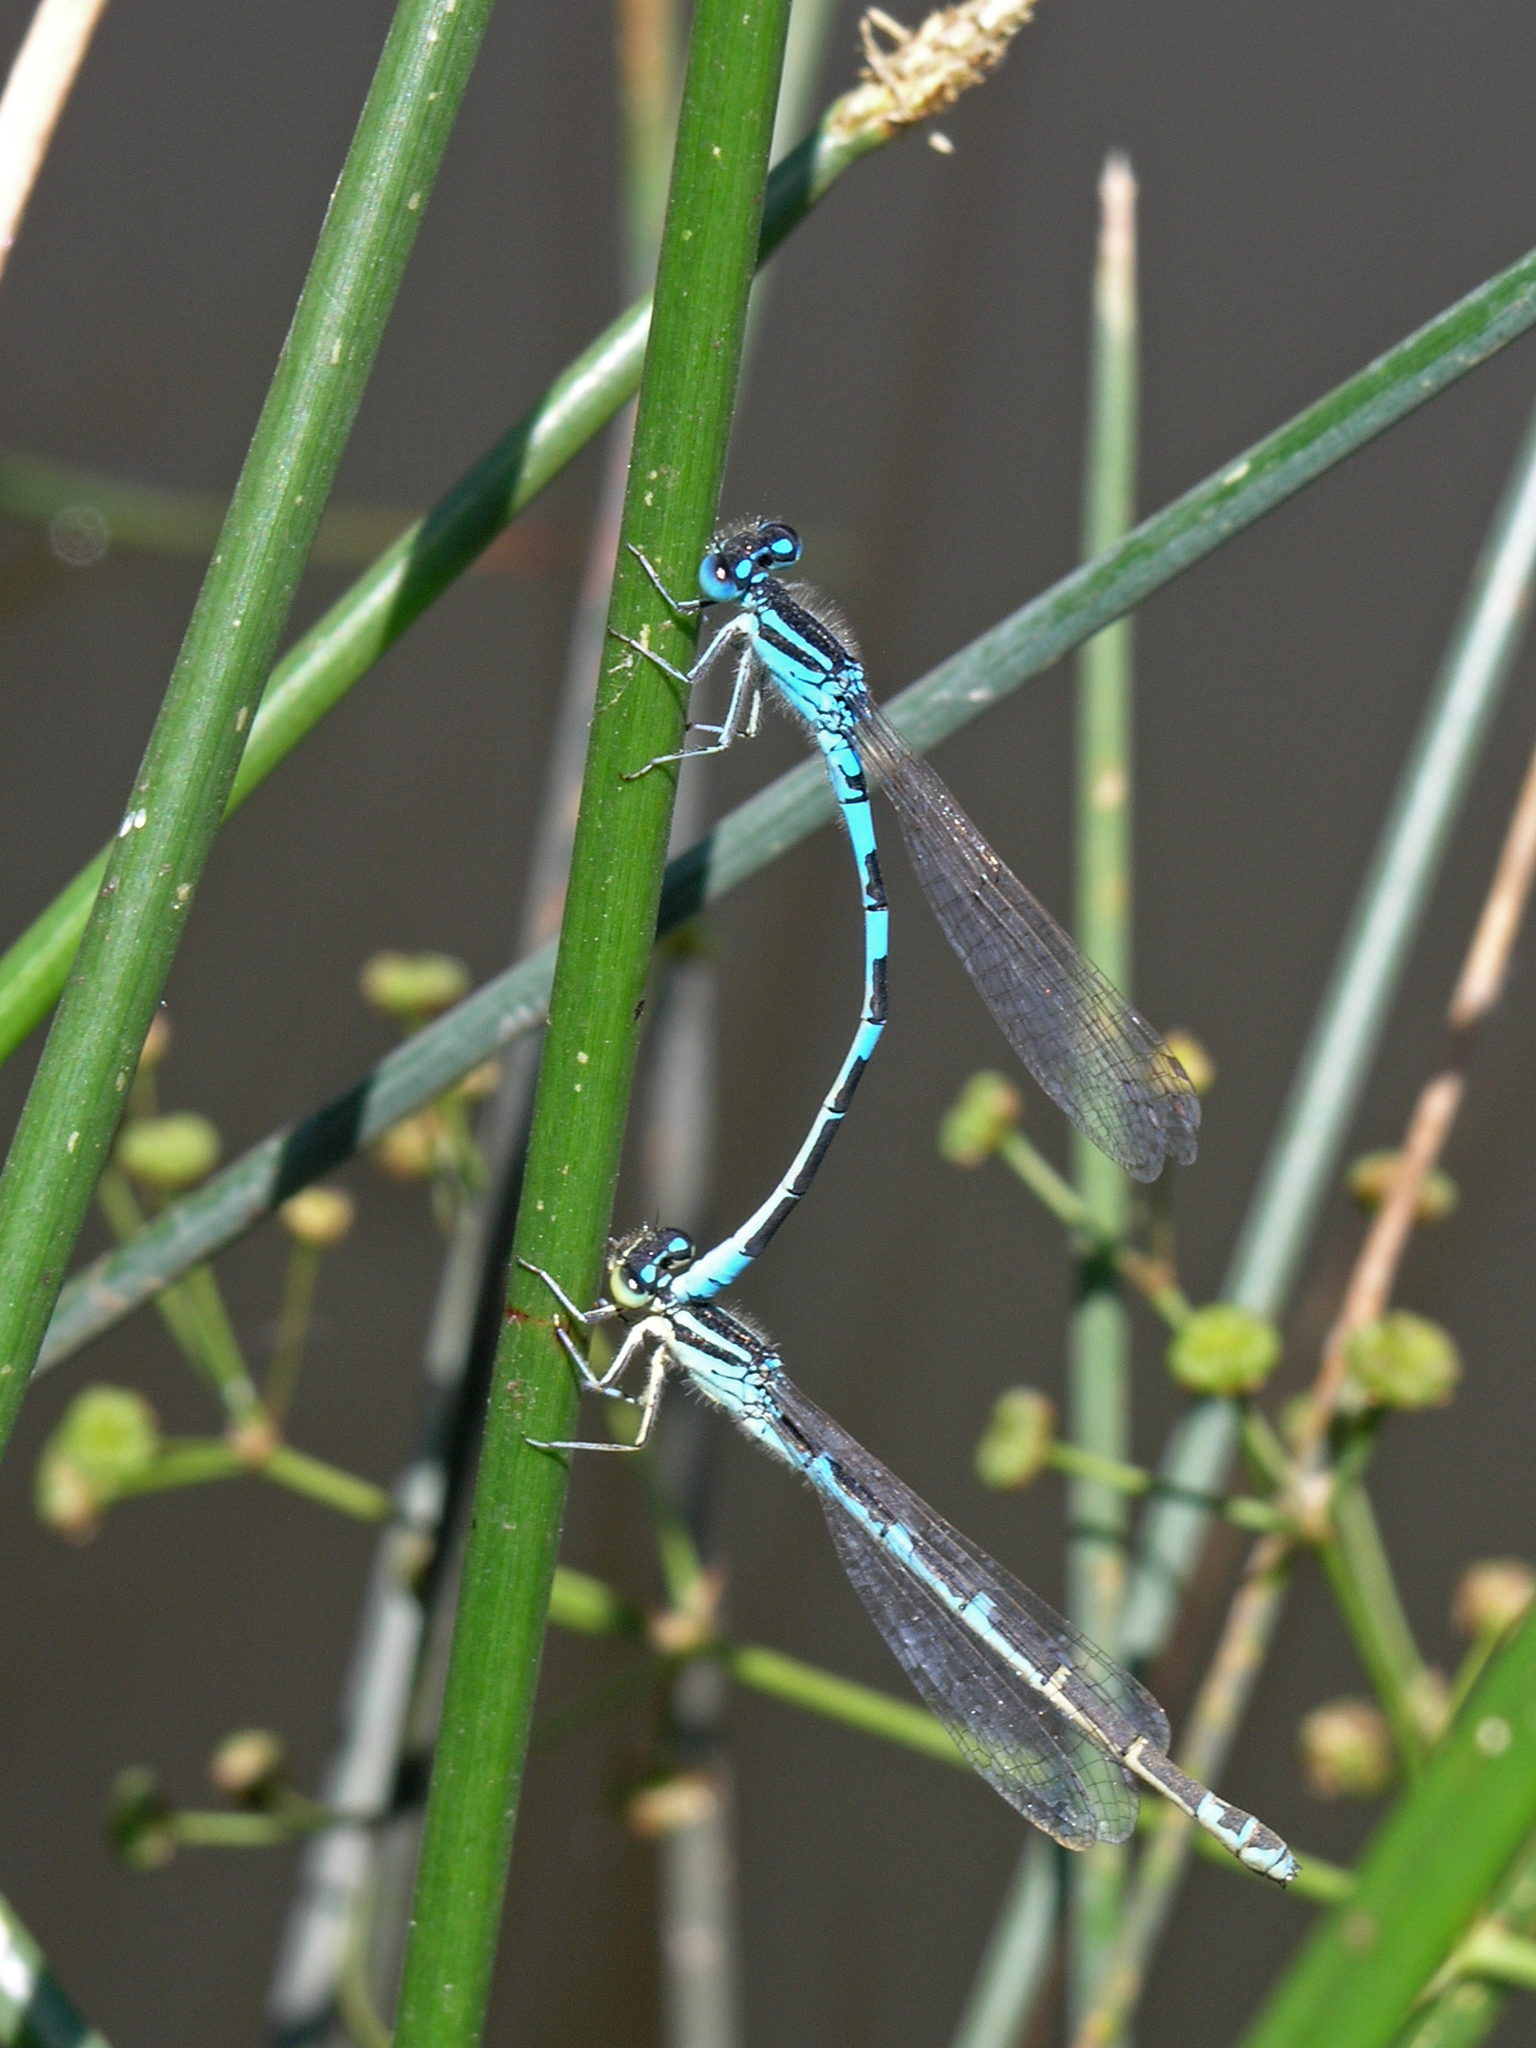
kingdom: Animalia
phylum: Arthropoda
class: Insecta
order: Odonata
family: Coenagrionidae
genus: Coenagrion
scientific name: Coenagrion scitulum
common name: Dainty bluet
